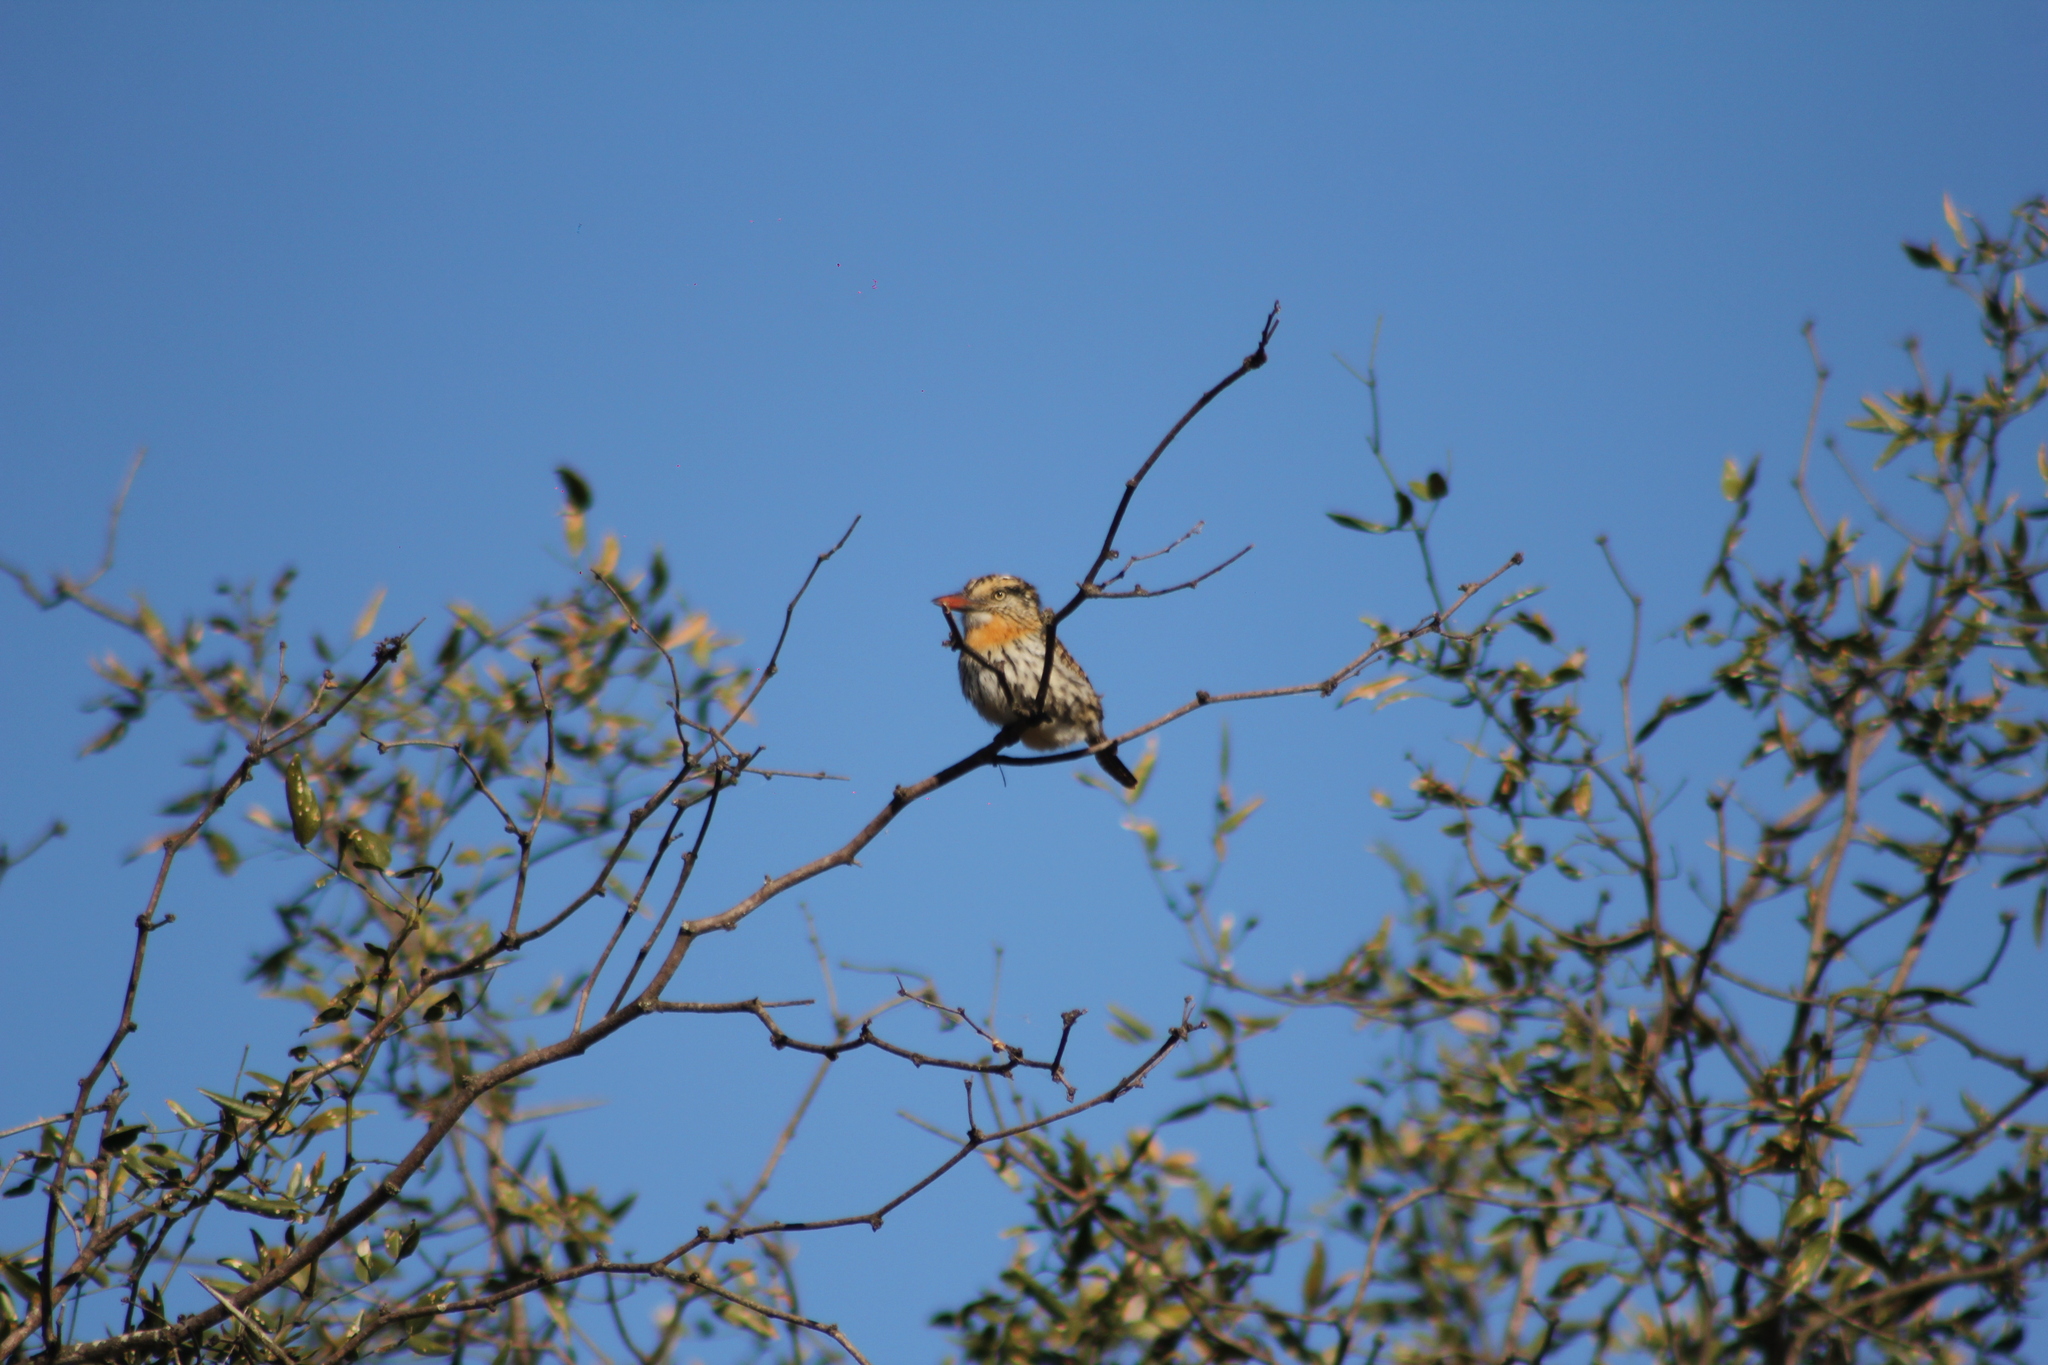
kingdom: Animalia
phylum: Chordata
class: Aves
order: Piciformes
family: Bucconidae
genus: Nystalus
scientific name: Nystalus maculatus
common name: Caatinga puffbird
